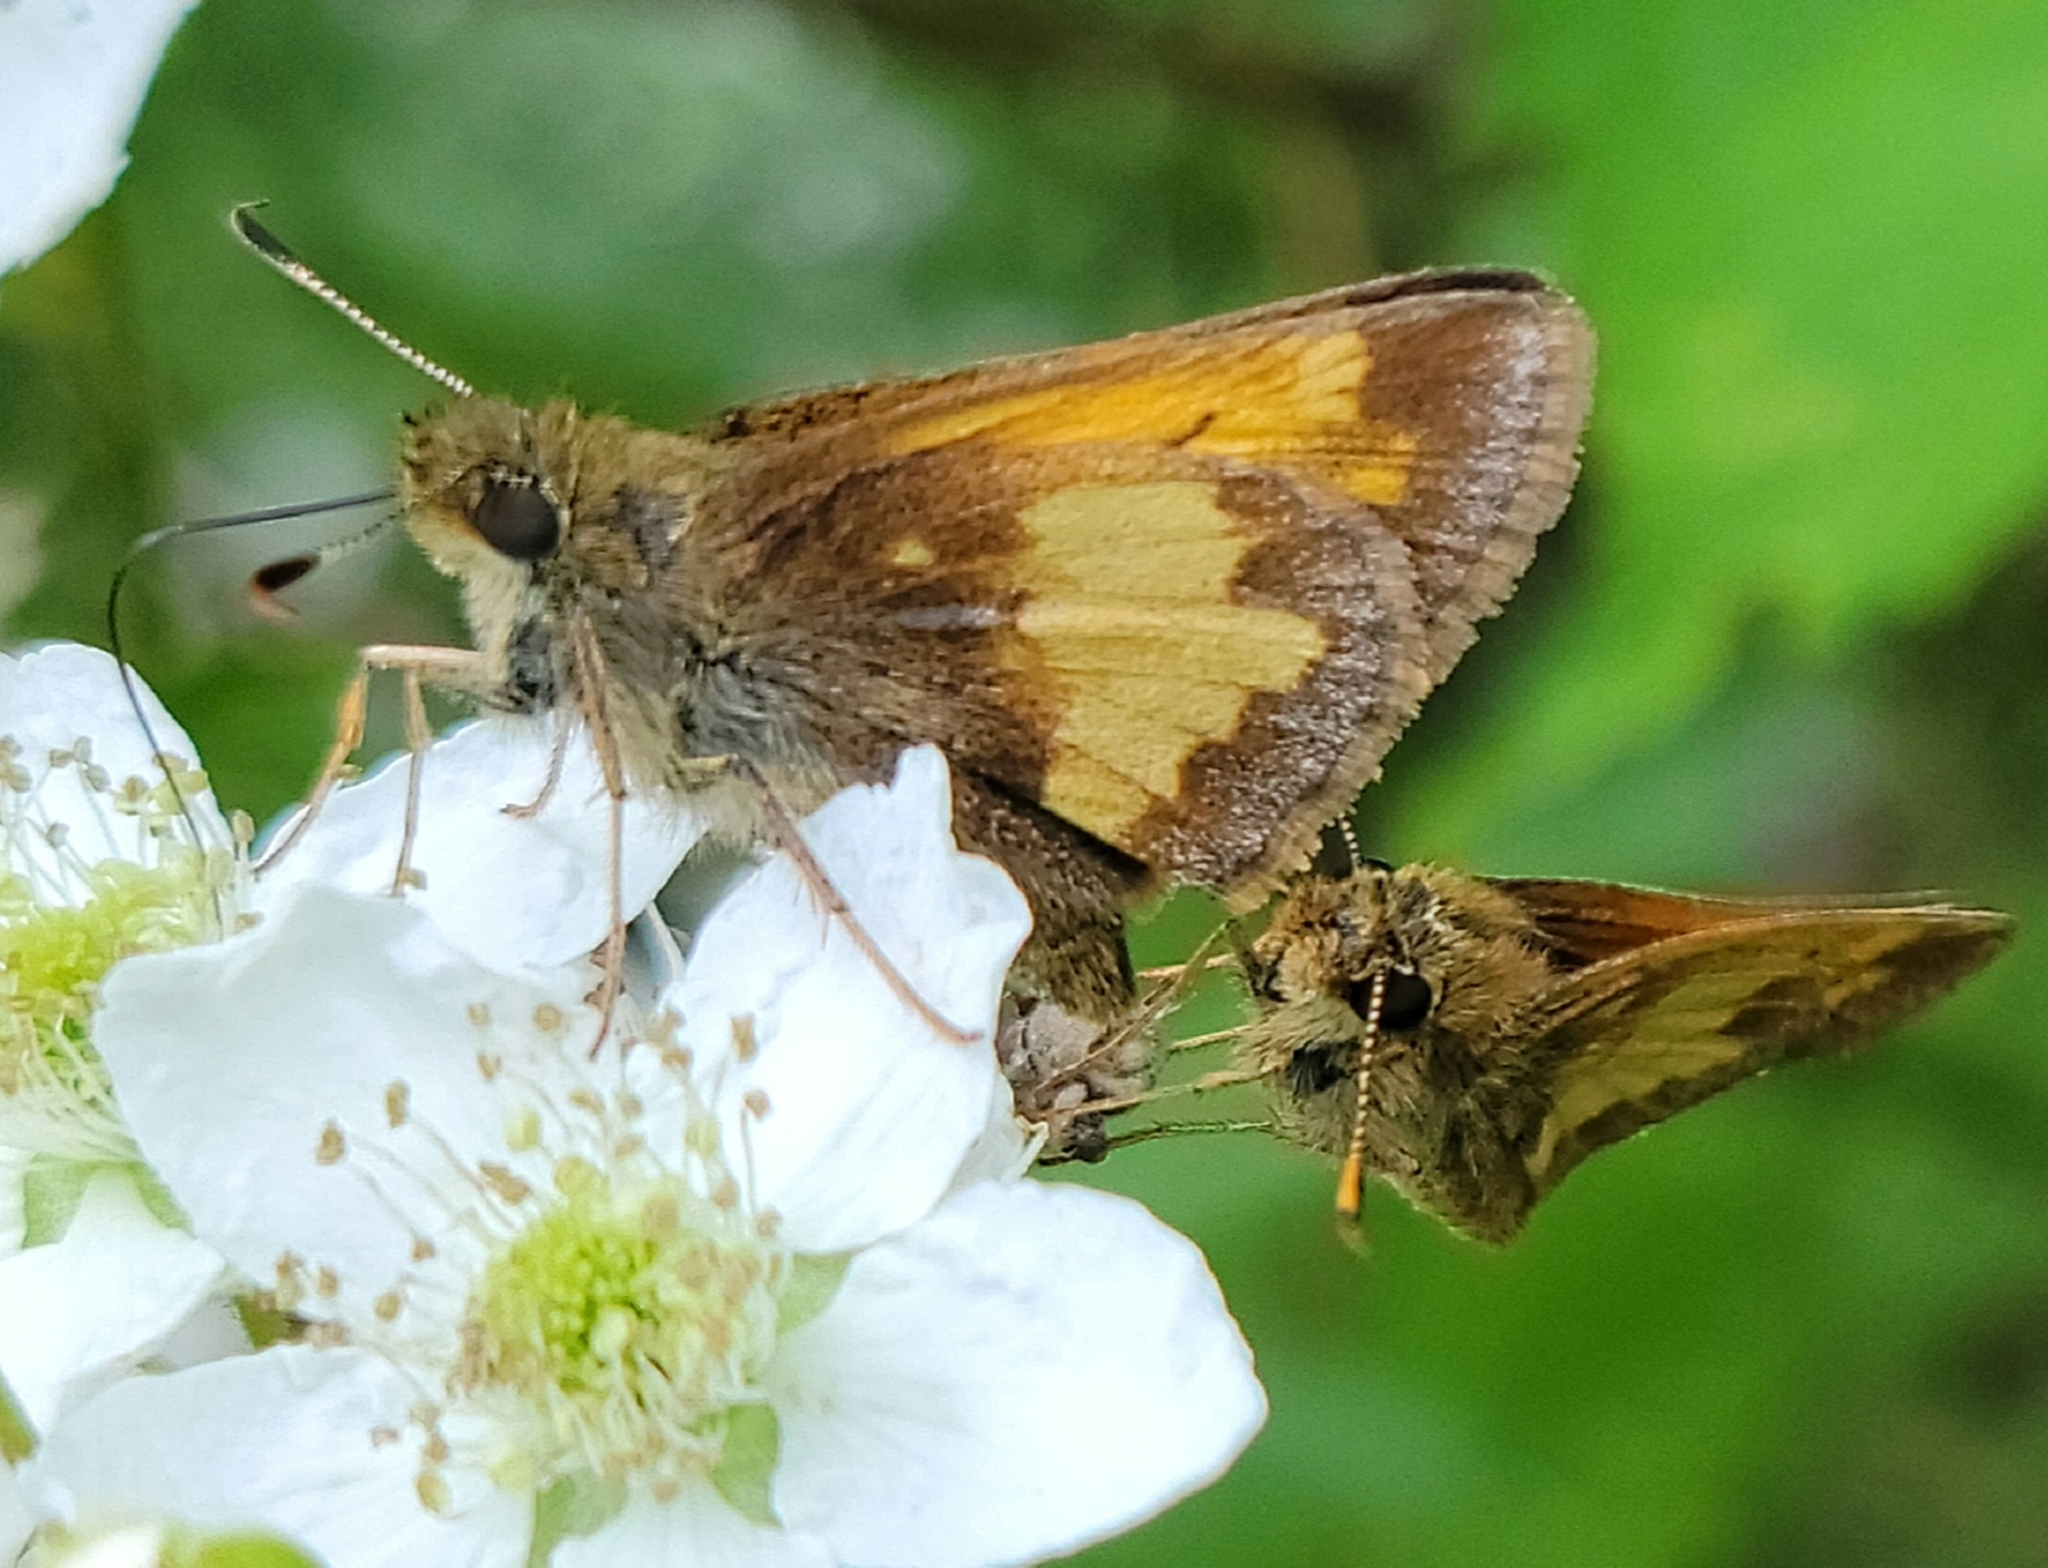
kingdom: Animalia
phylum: Arthropoda
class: Insecta
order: Lepidoptera
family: Hesperiidae
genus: Lon
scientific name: Lon hobomok
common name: Hobomok skipper
